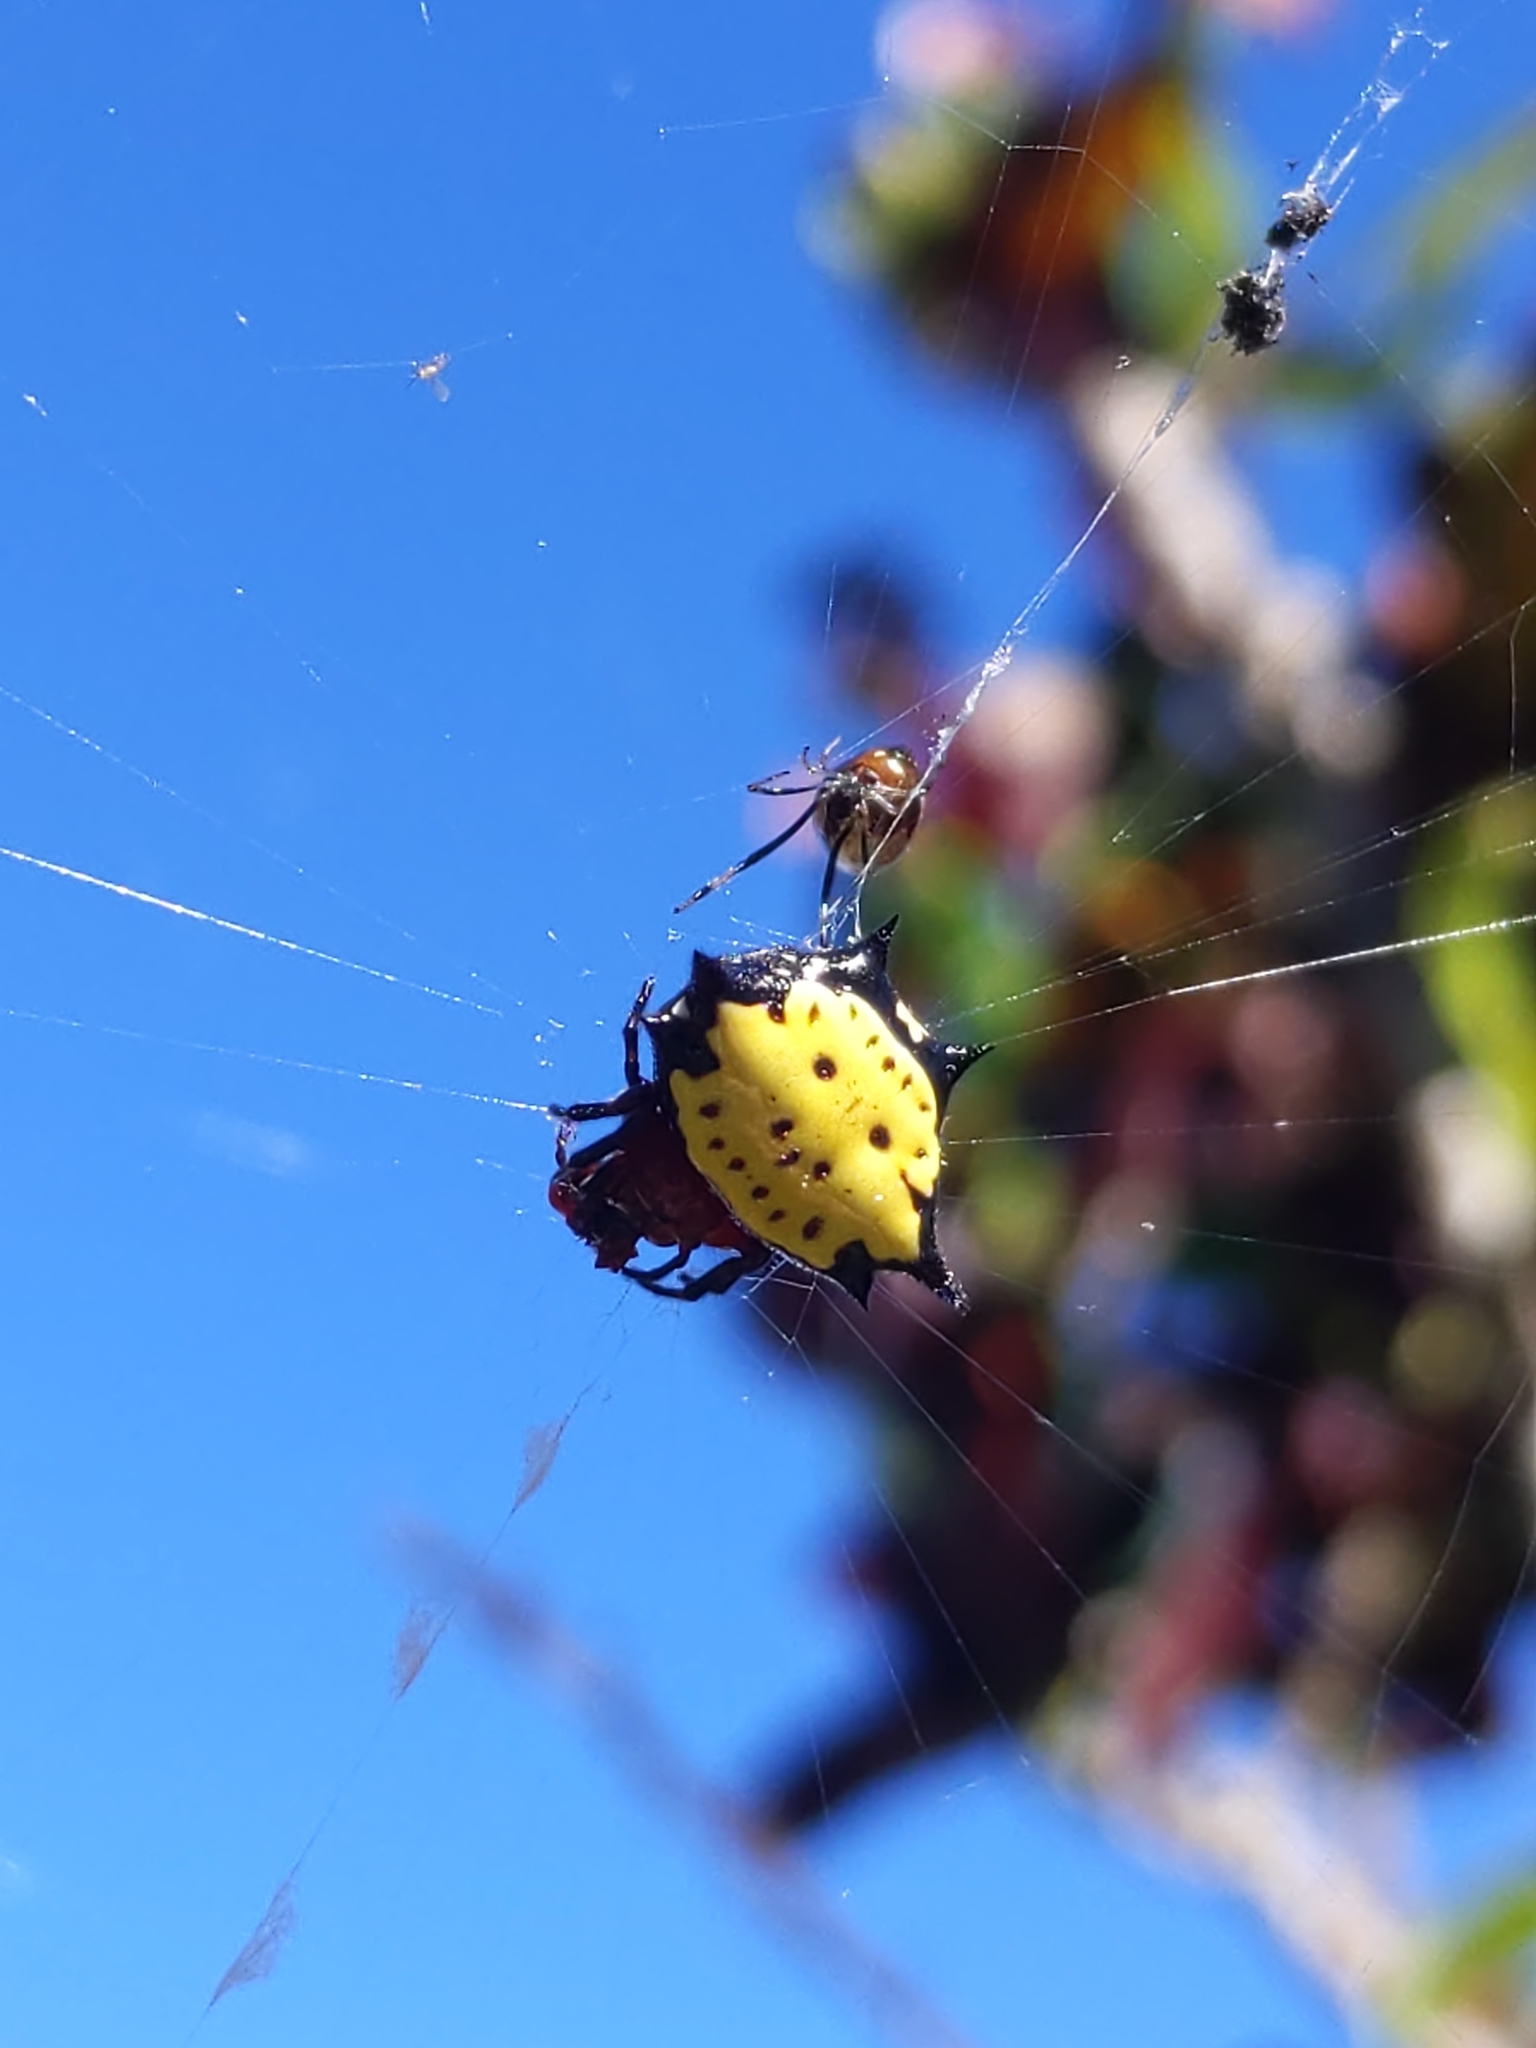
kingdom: Animalia
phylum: Arthropoda
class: Arachnida
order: Araneae
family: Araneidae
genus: Gasteracantha
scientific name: Gasteracantha cancriformis
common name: Orb weavers
